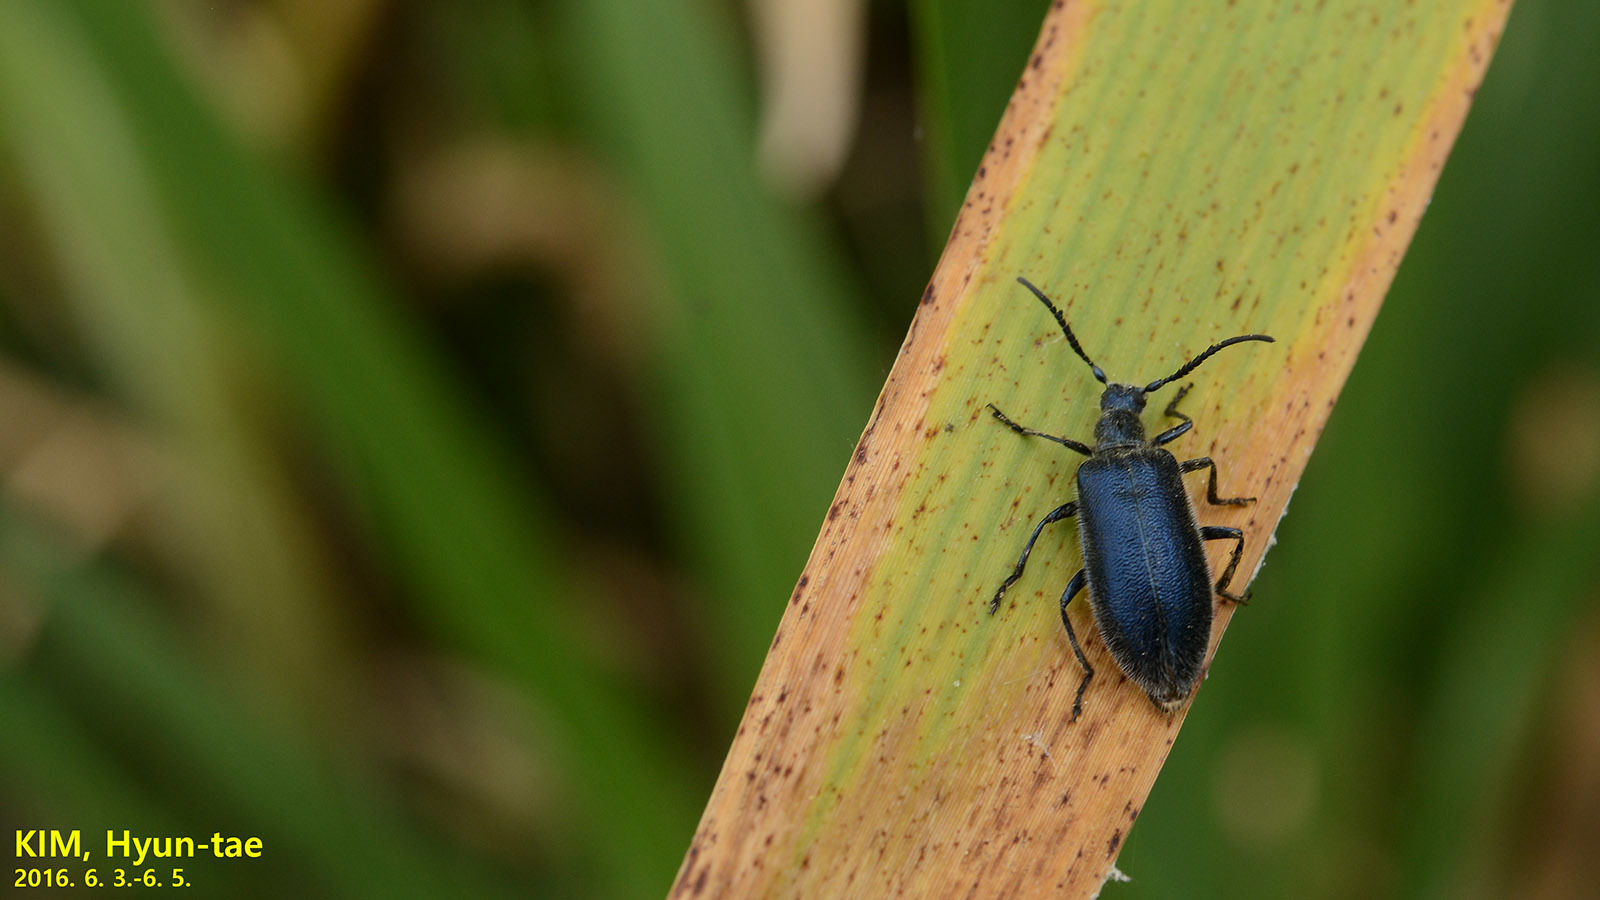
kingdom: Animalia
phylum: Arthropoda
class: Insecta
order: Coleoptera
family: Tenebrionidae
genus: Cerogria
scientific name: Cerogria janthinipennis
